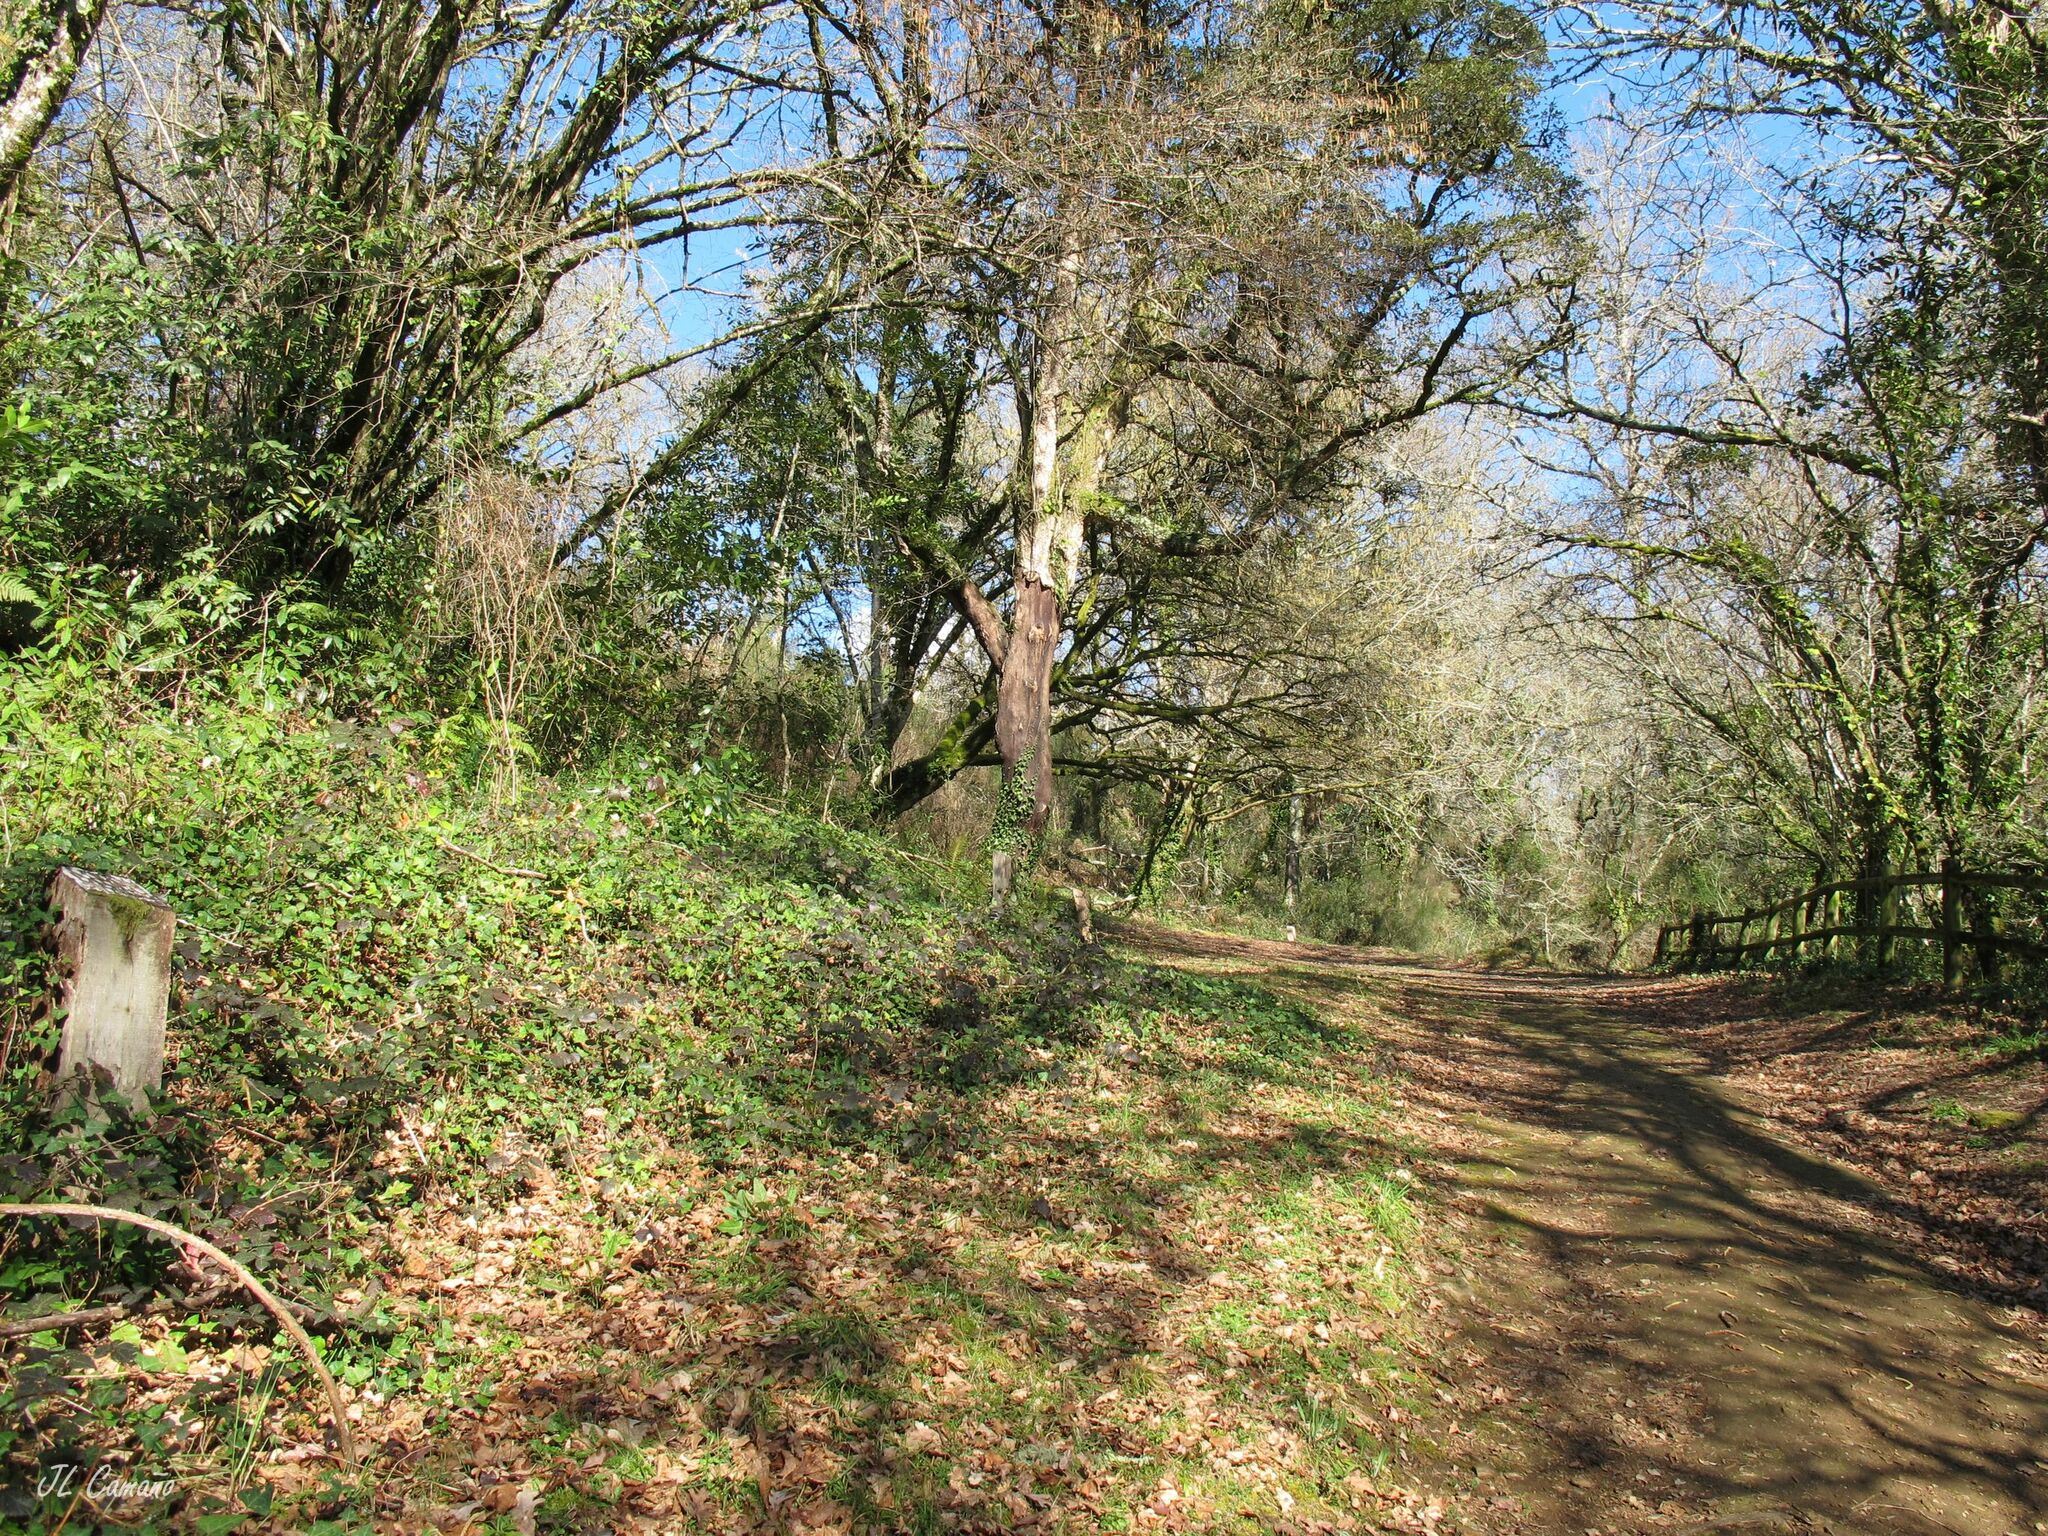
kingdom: Plantae
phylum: Bryophyta
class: Bryopsida
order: Hypnales
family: Hylocomiaceae
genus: Rhytidiadelphus
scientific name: Rhytidiadelphus squarrosus
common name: Springy turf-moss
